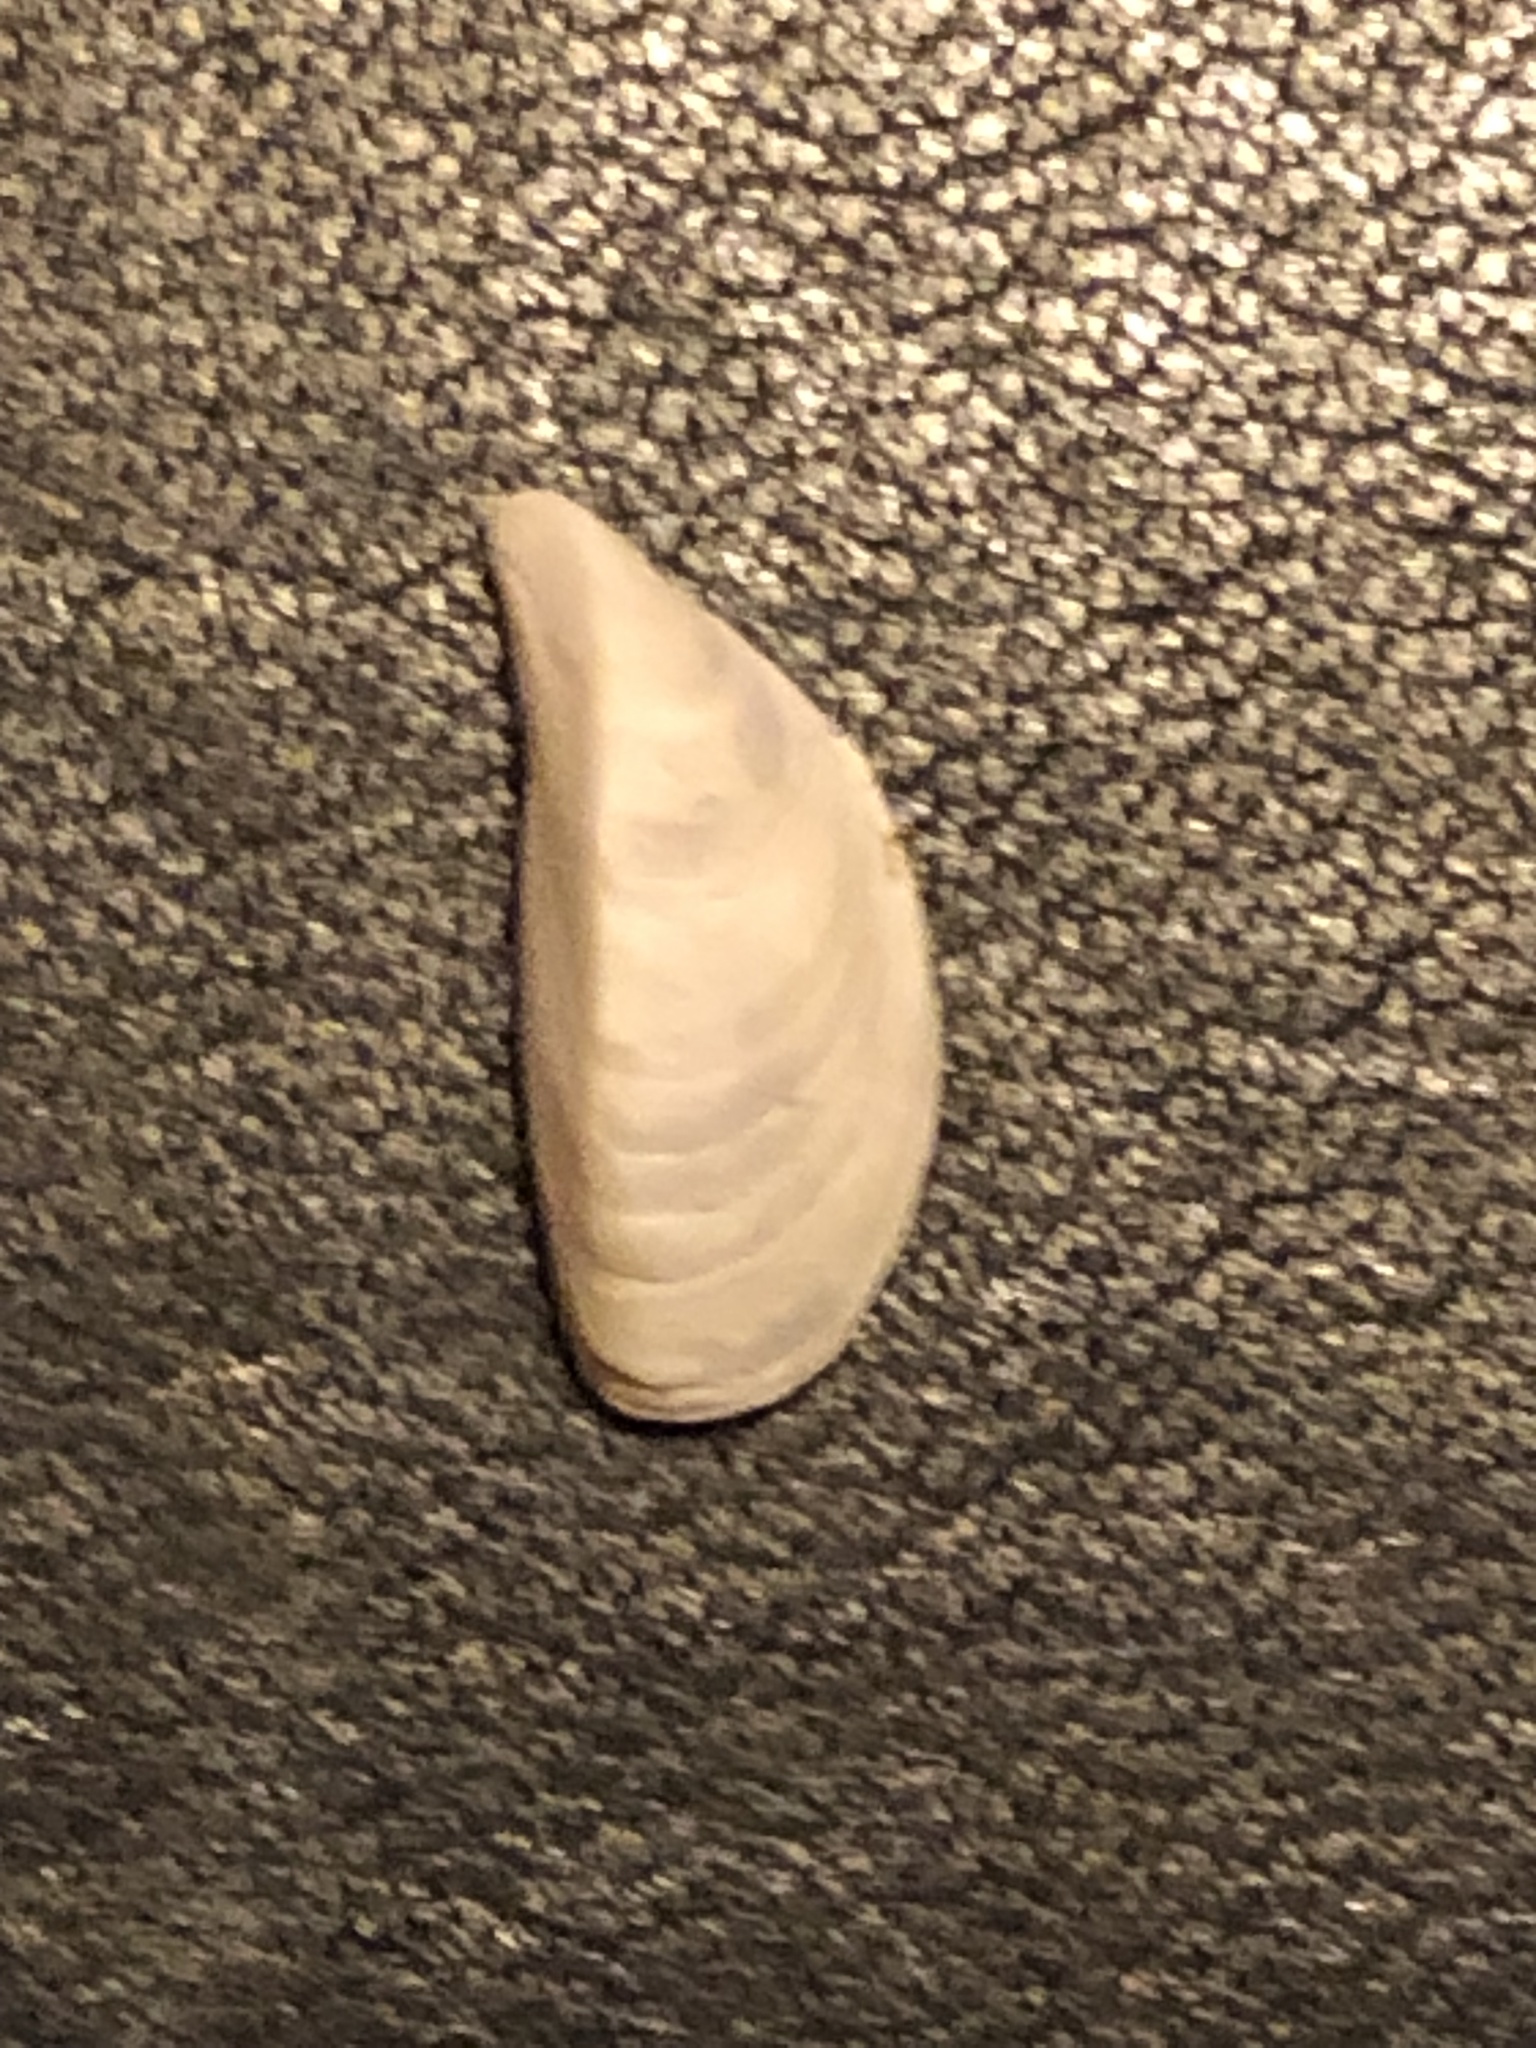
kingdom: Animalia
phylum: Mollusca
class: Bivalvia
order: Myida
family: Dreissenidae
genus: Dreissena
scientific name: Dreissena polymorpha
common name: Zebra mussel
